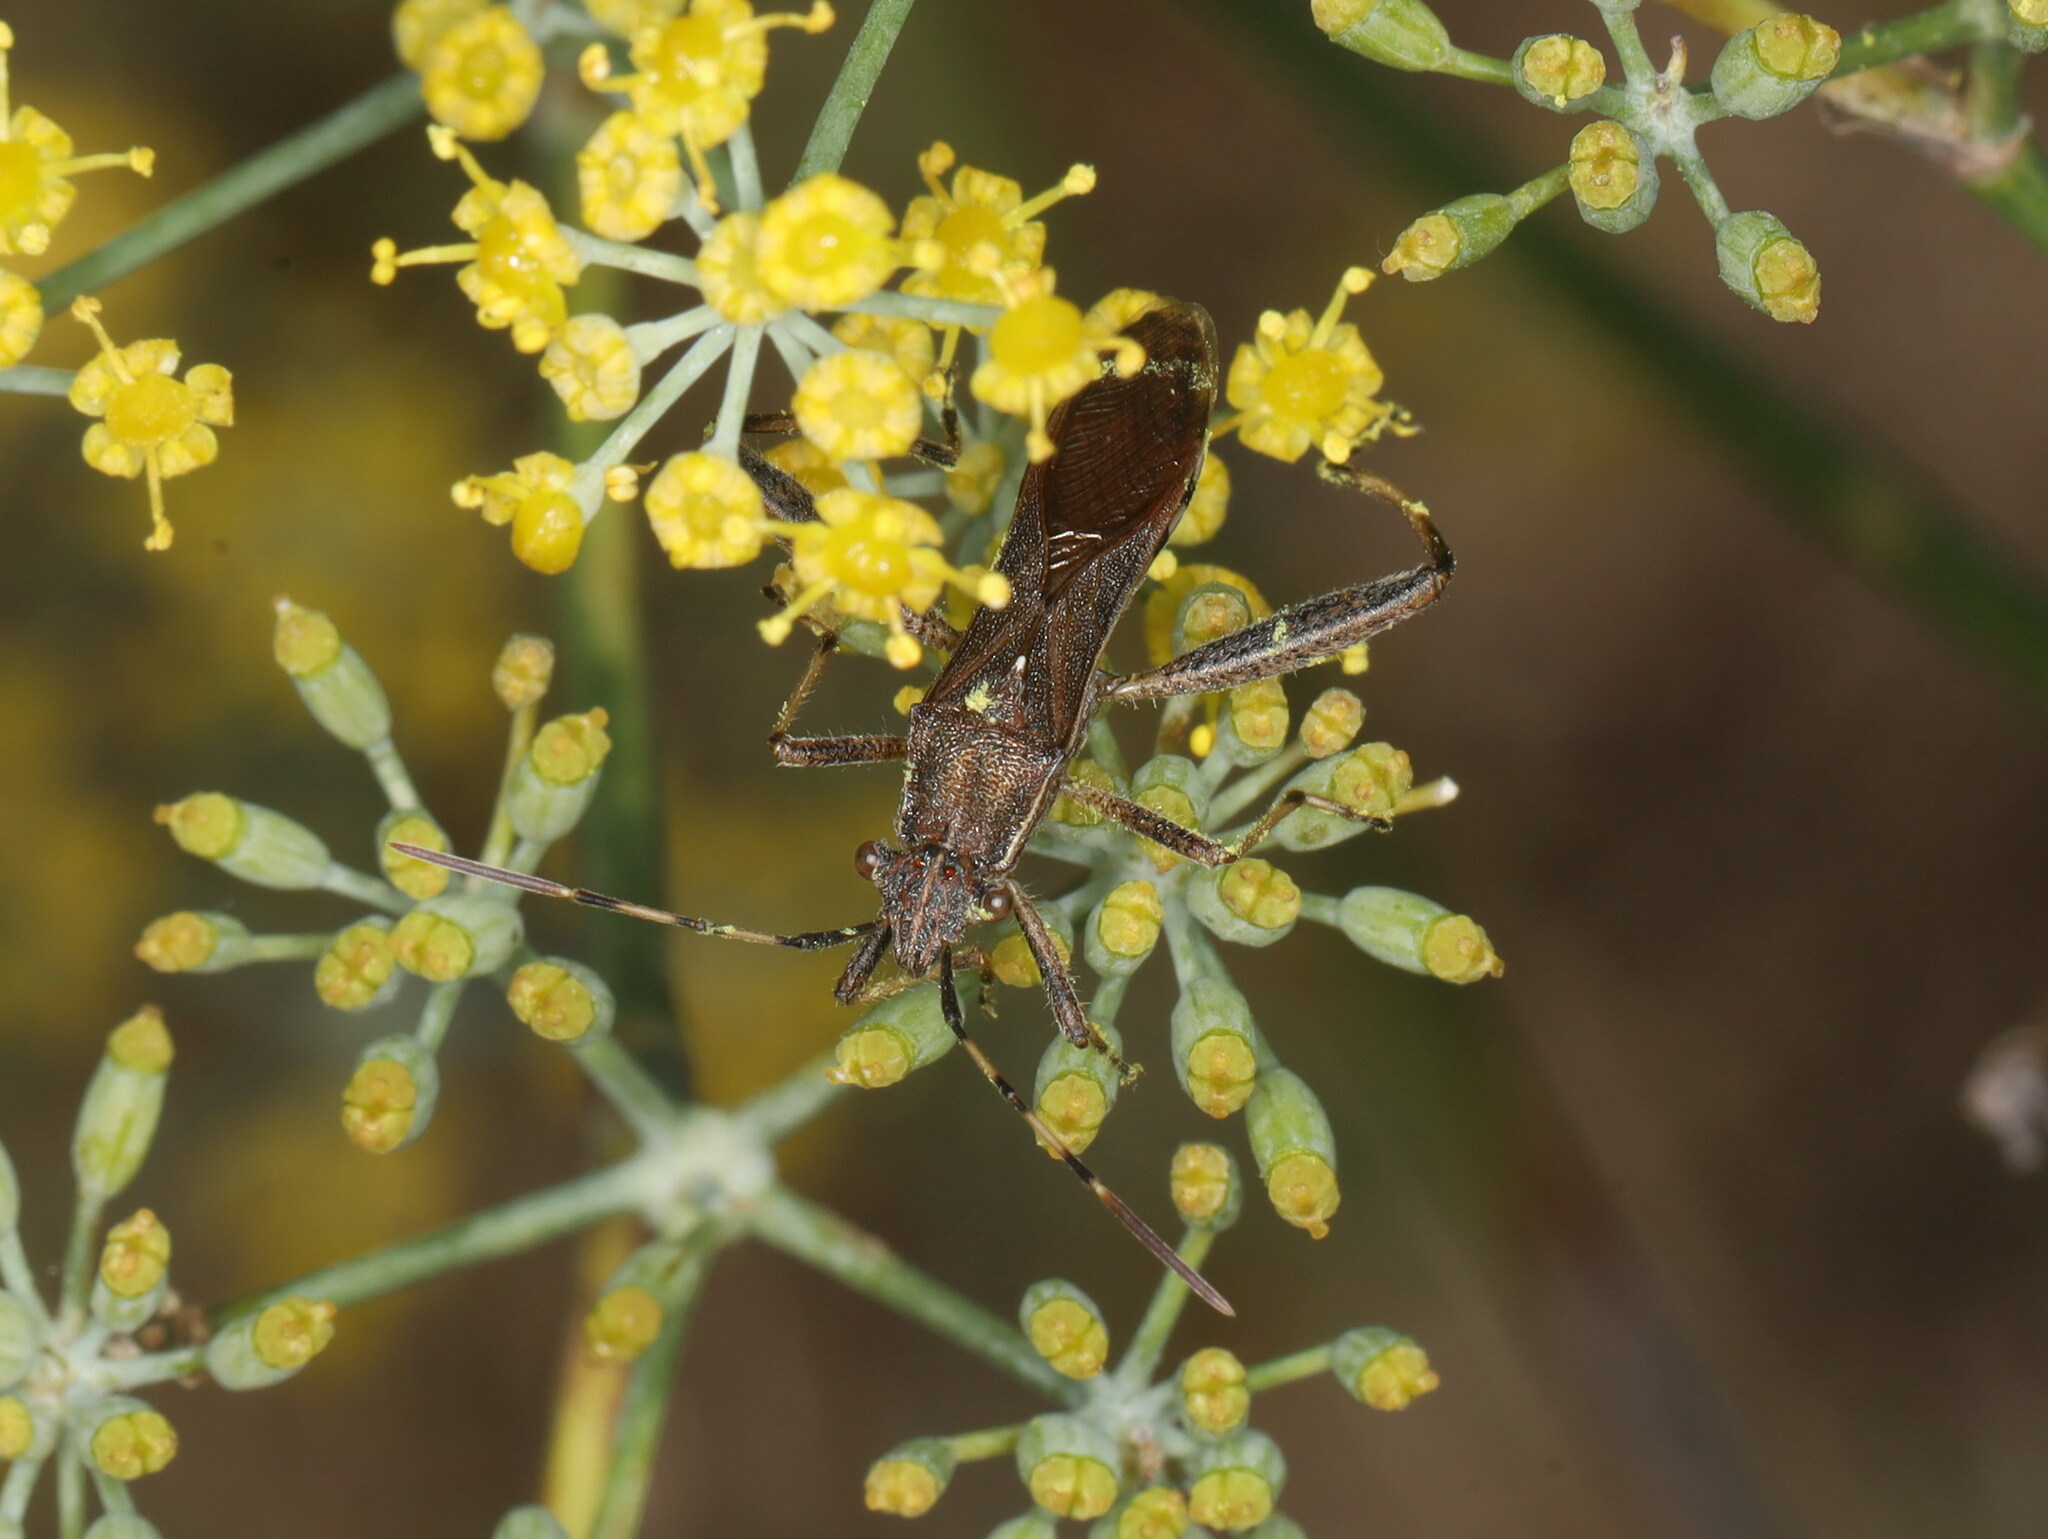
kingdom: Animalia
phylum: Arthropoda
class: Insecta
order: Hemiptera
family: Alydidae
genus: Camptopus
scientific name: Camptopus lateralis
